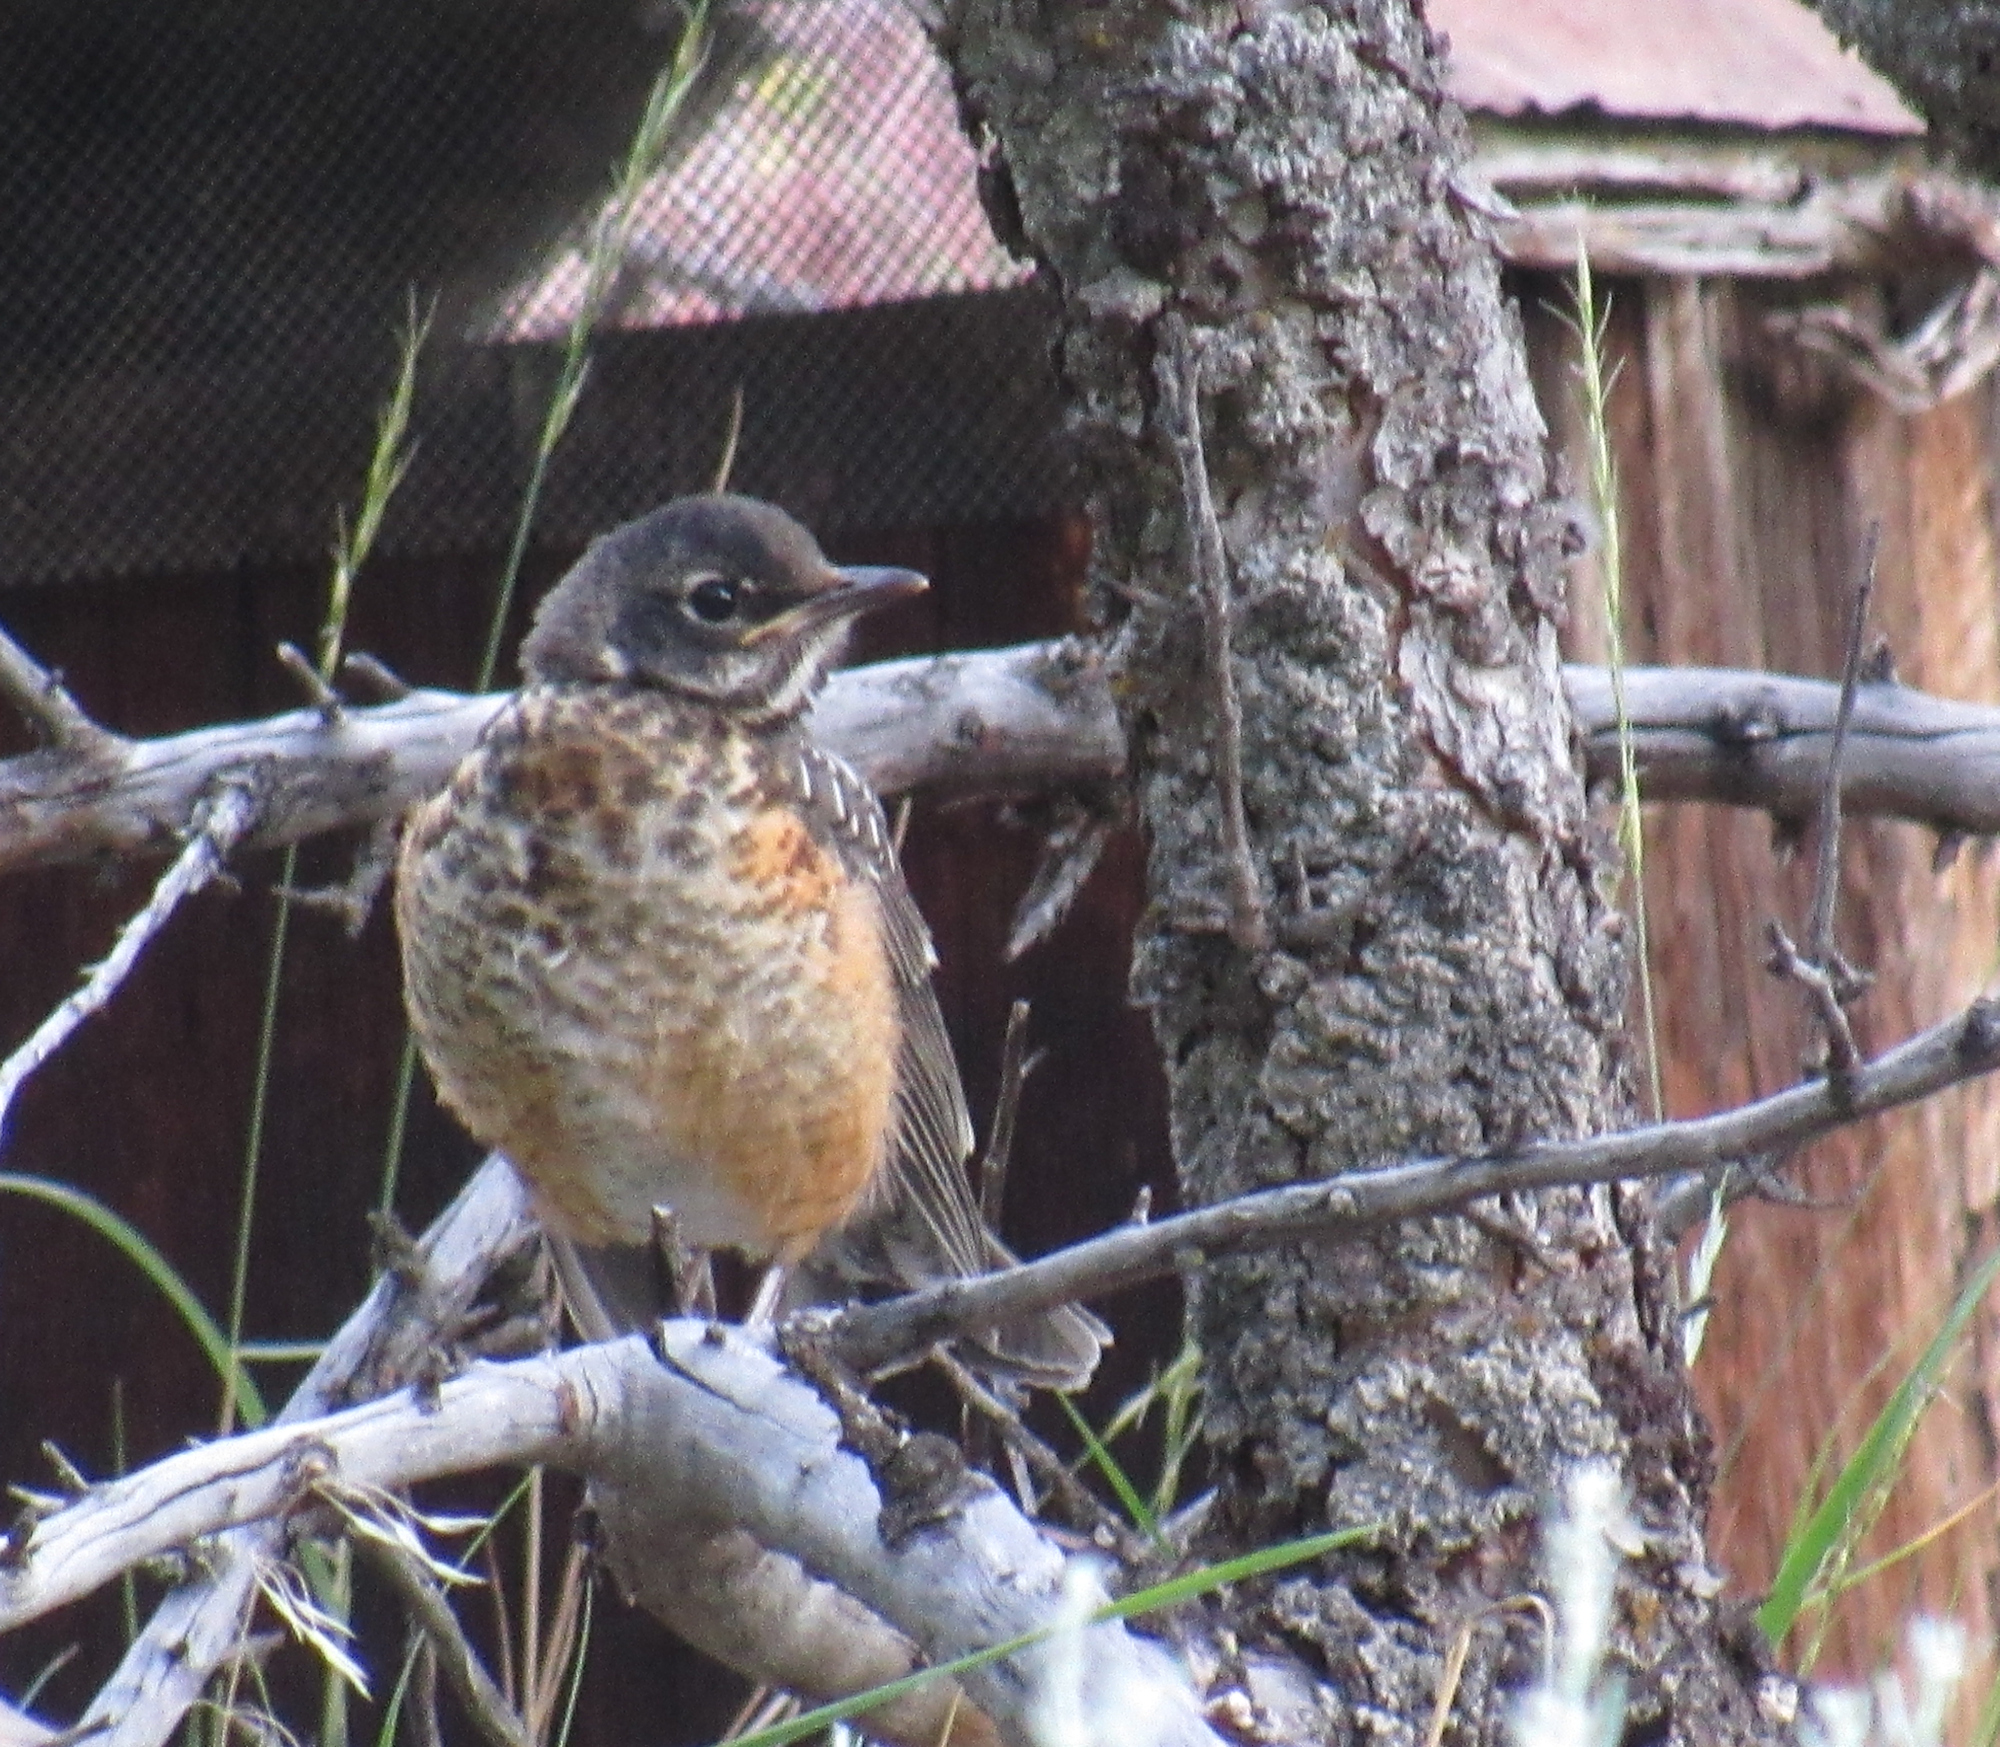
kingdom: Animalia
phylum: Chordata
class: Aves
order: Passeriformes
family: Turdidae
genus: Turdus
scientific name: Turdus migratorius
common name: American robin
